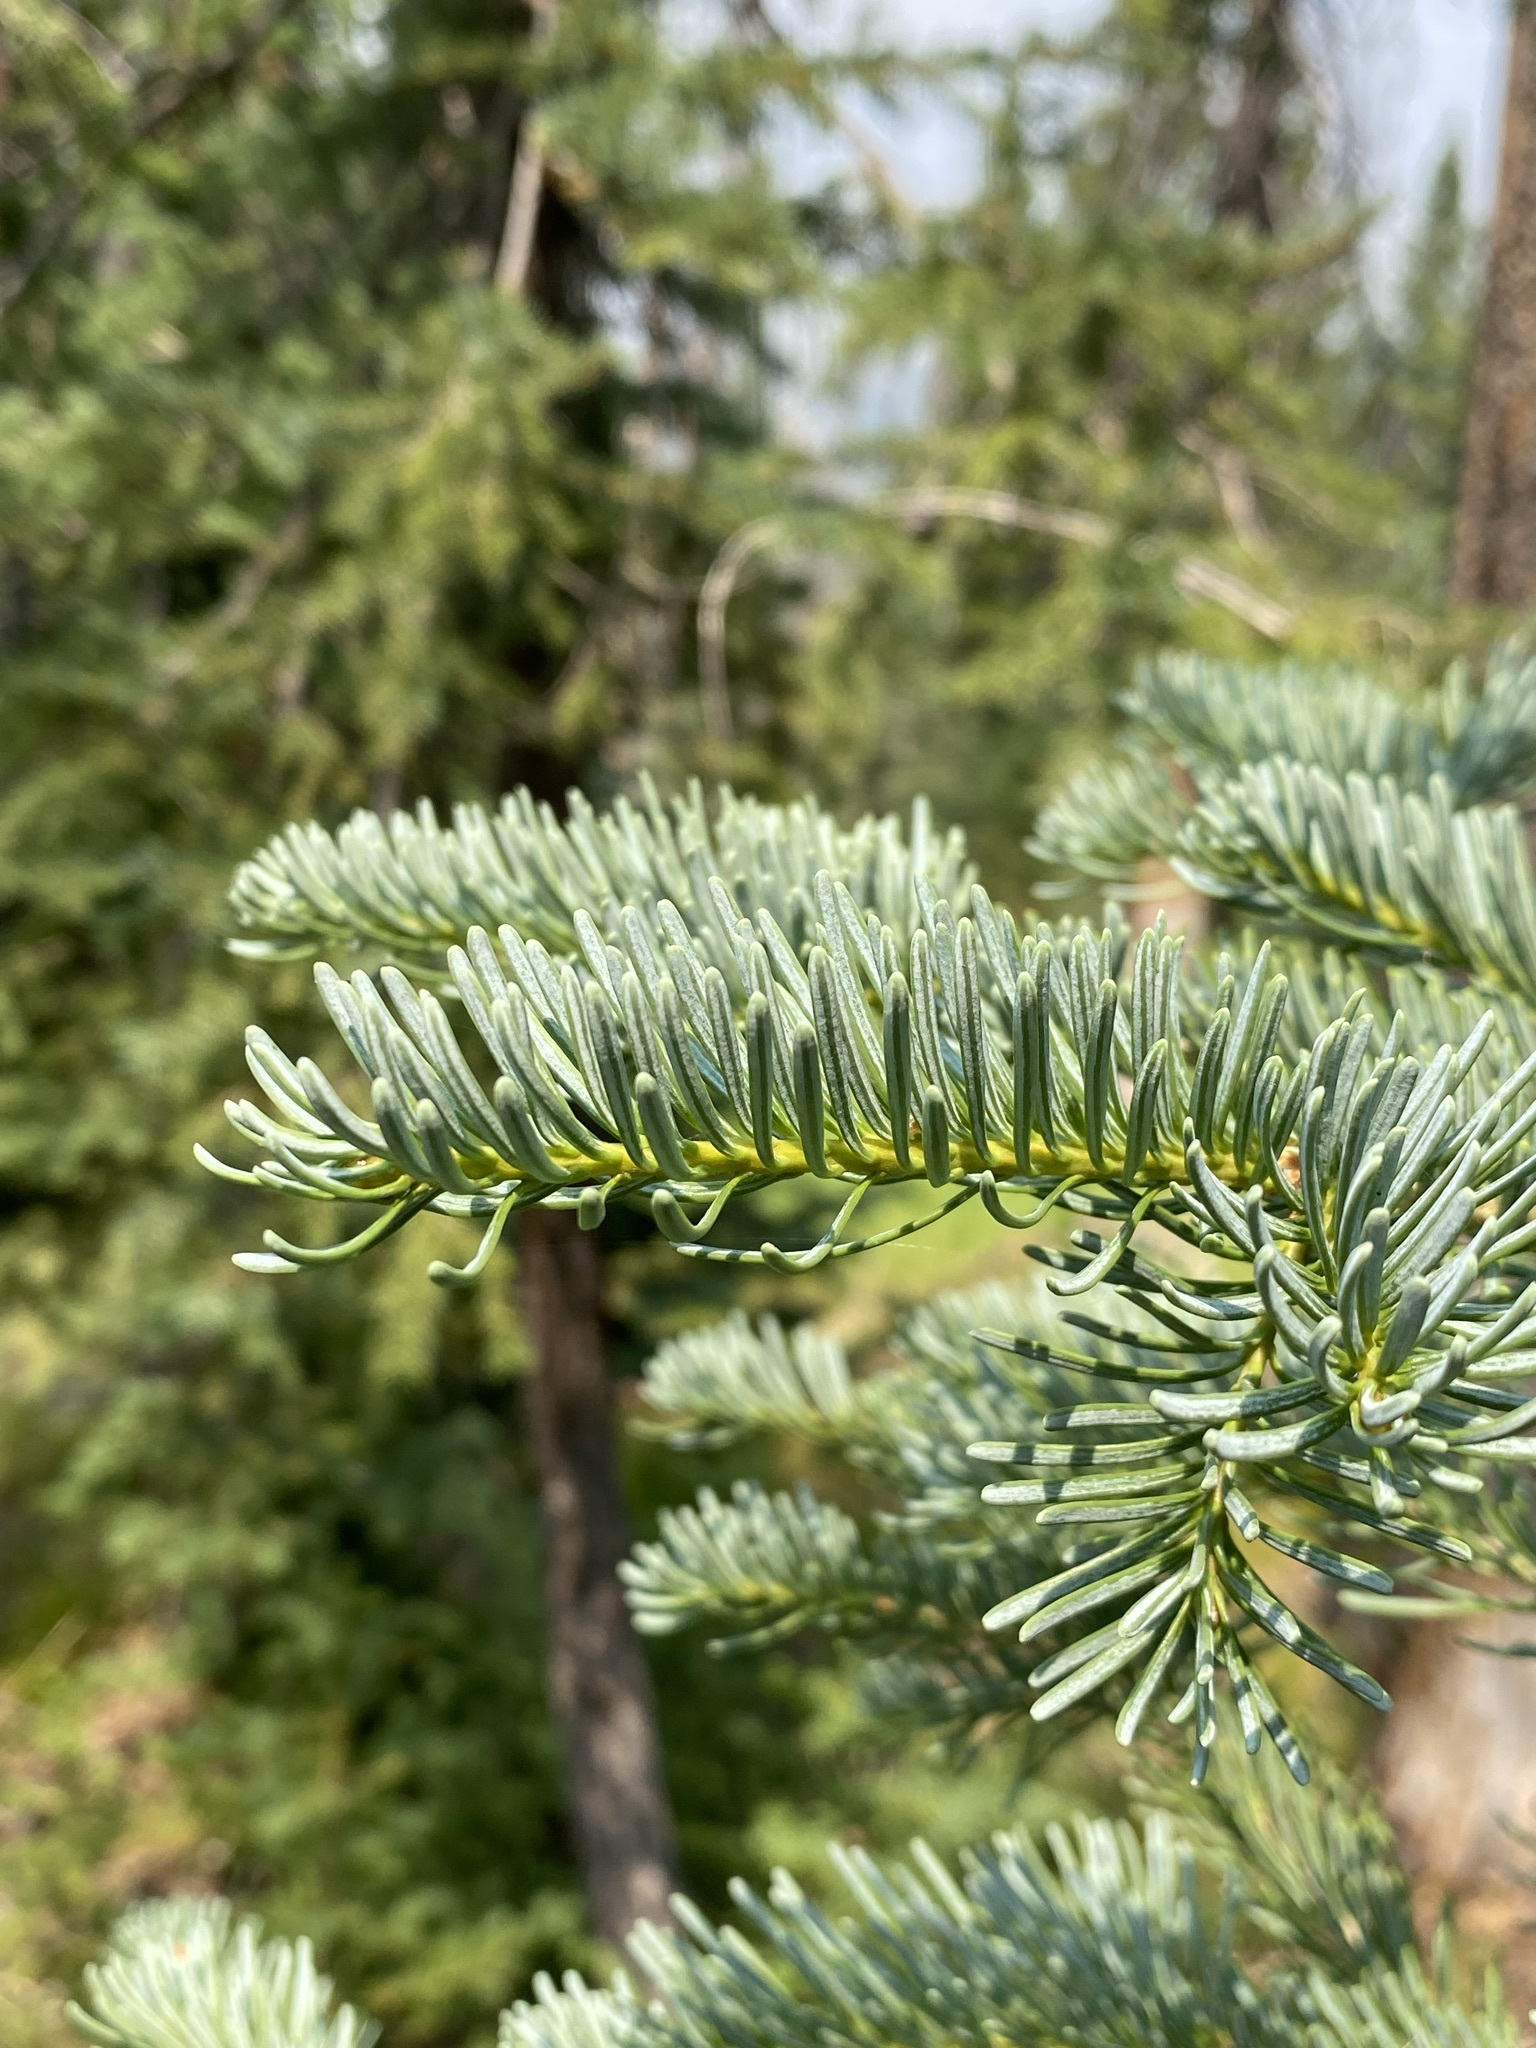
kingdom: Plantae
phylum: Tracheophyta
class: Pinopsida
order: Pinales
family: Pinaceae
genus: Abies
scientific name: Abies lasiocarpa
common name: Subalpine fir
